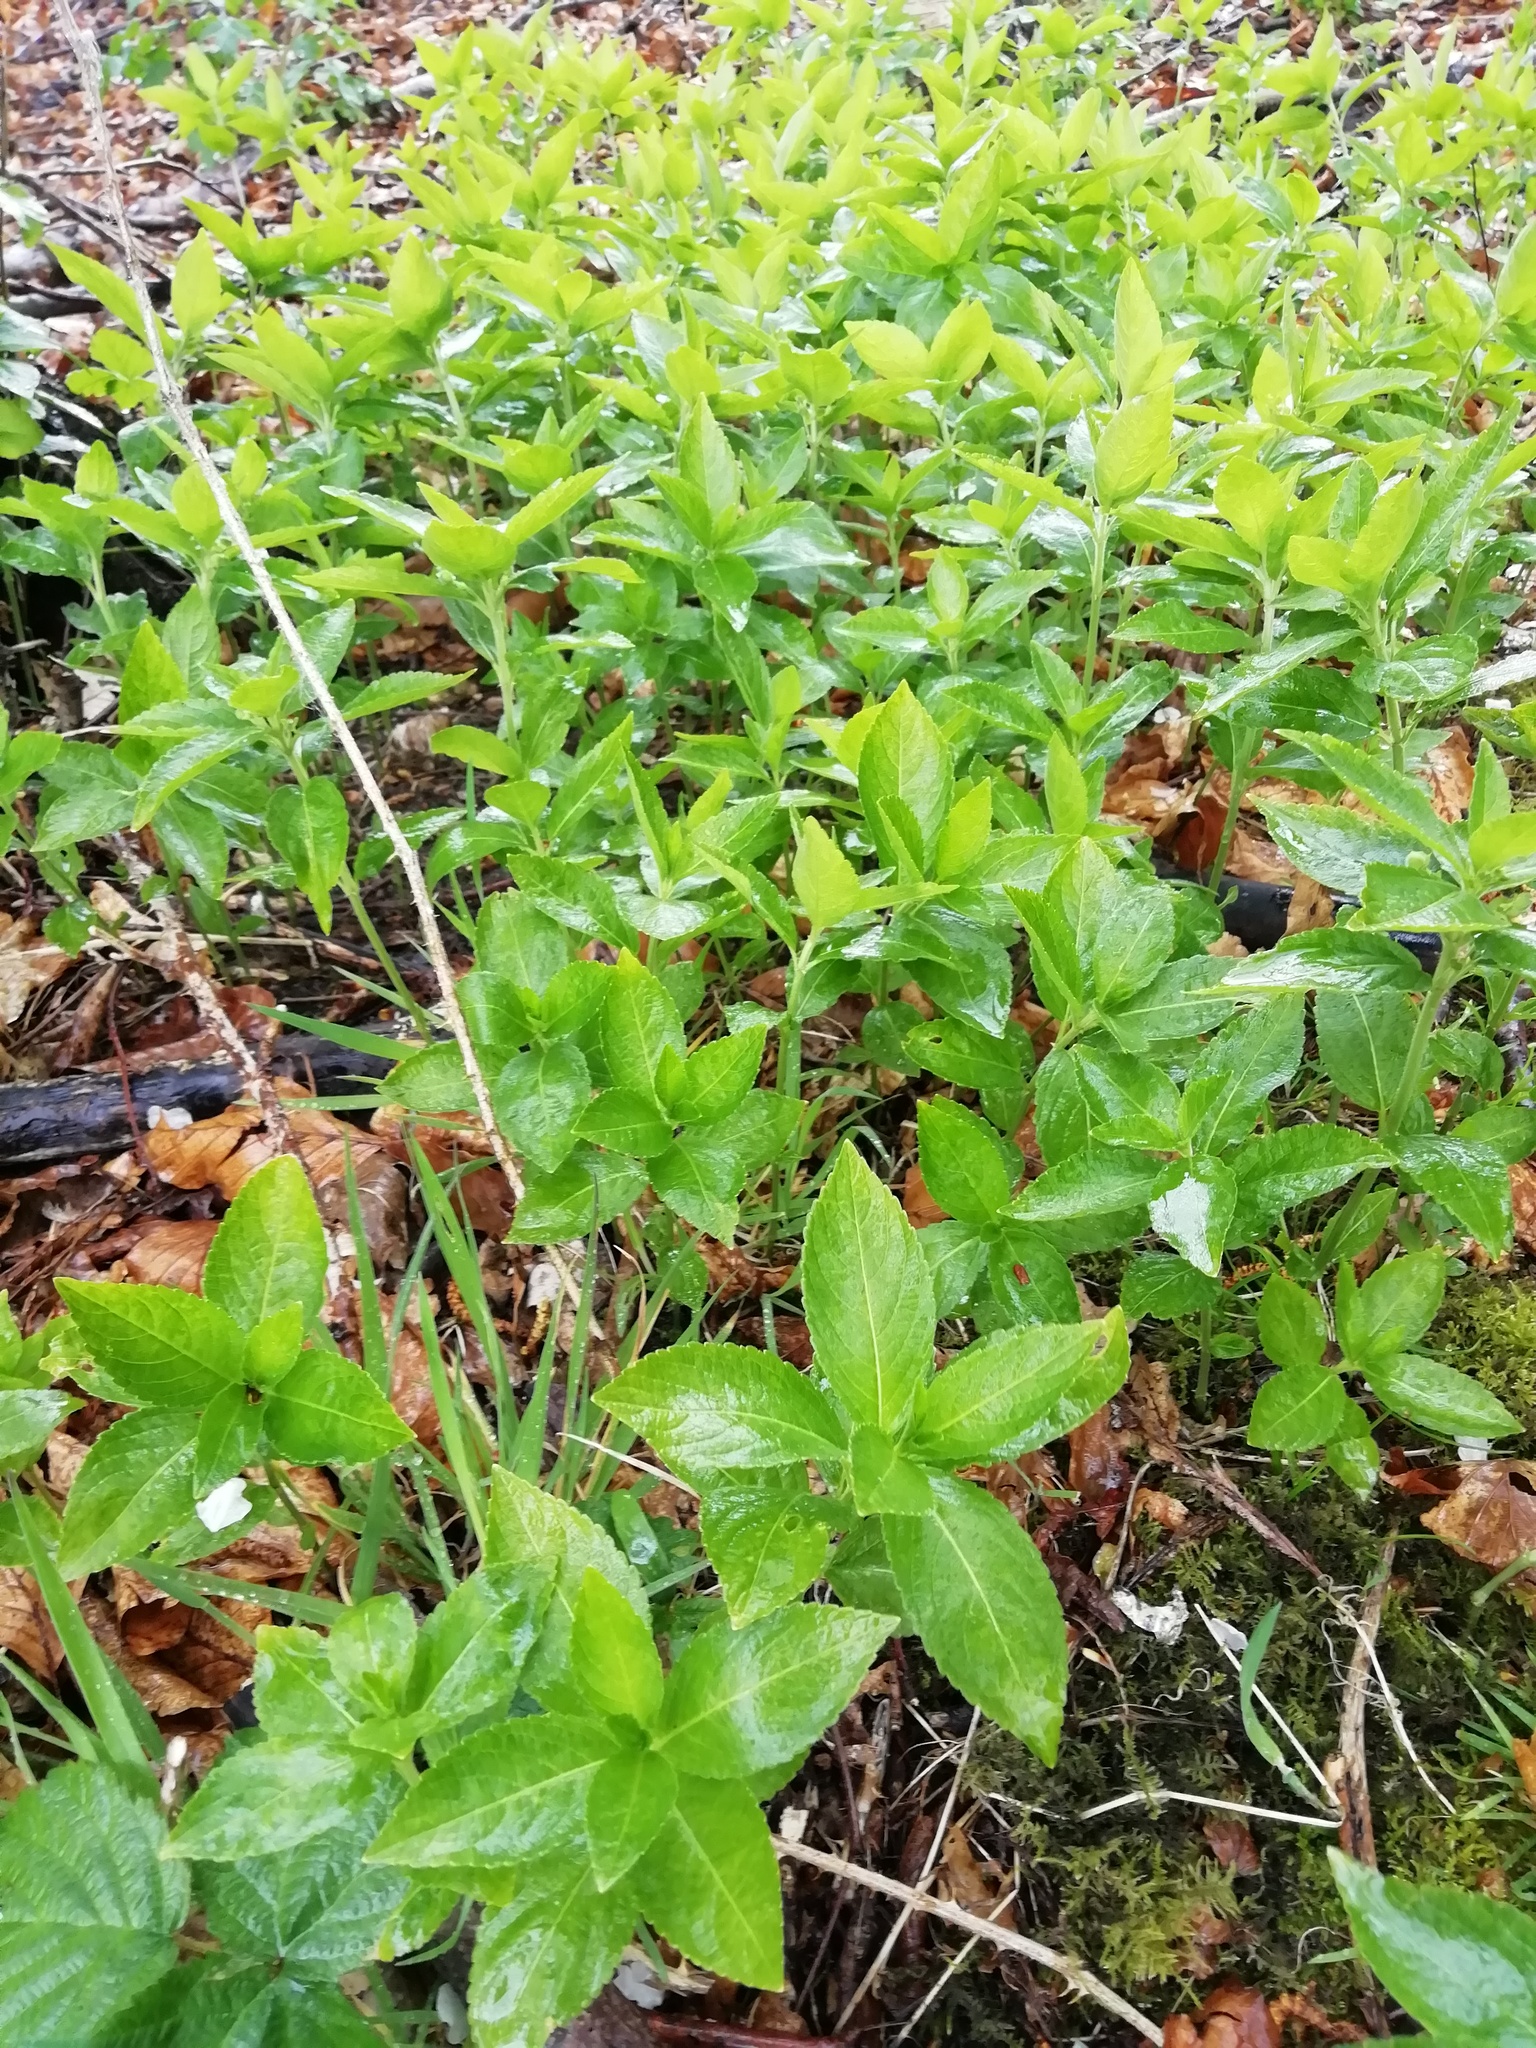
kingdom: Plantae
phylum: Tracheophyta
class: Magnoliopsida
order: Malpighiales
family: Euphorbiaceae
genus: Mercurialis
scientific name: Mercurialis perennis
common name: Dog mercury
